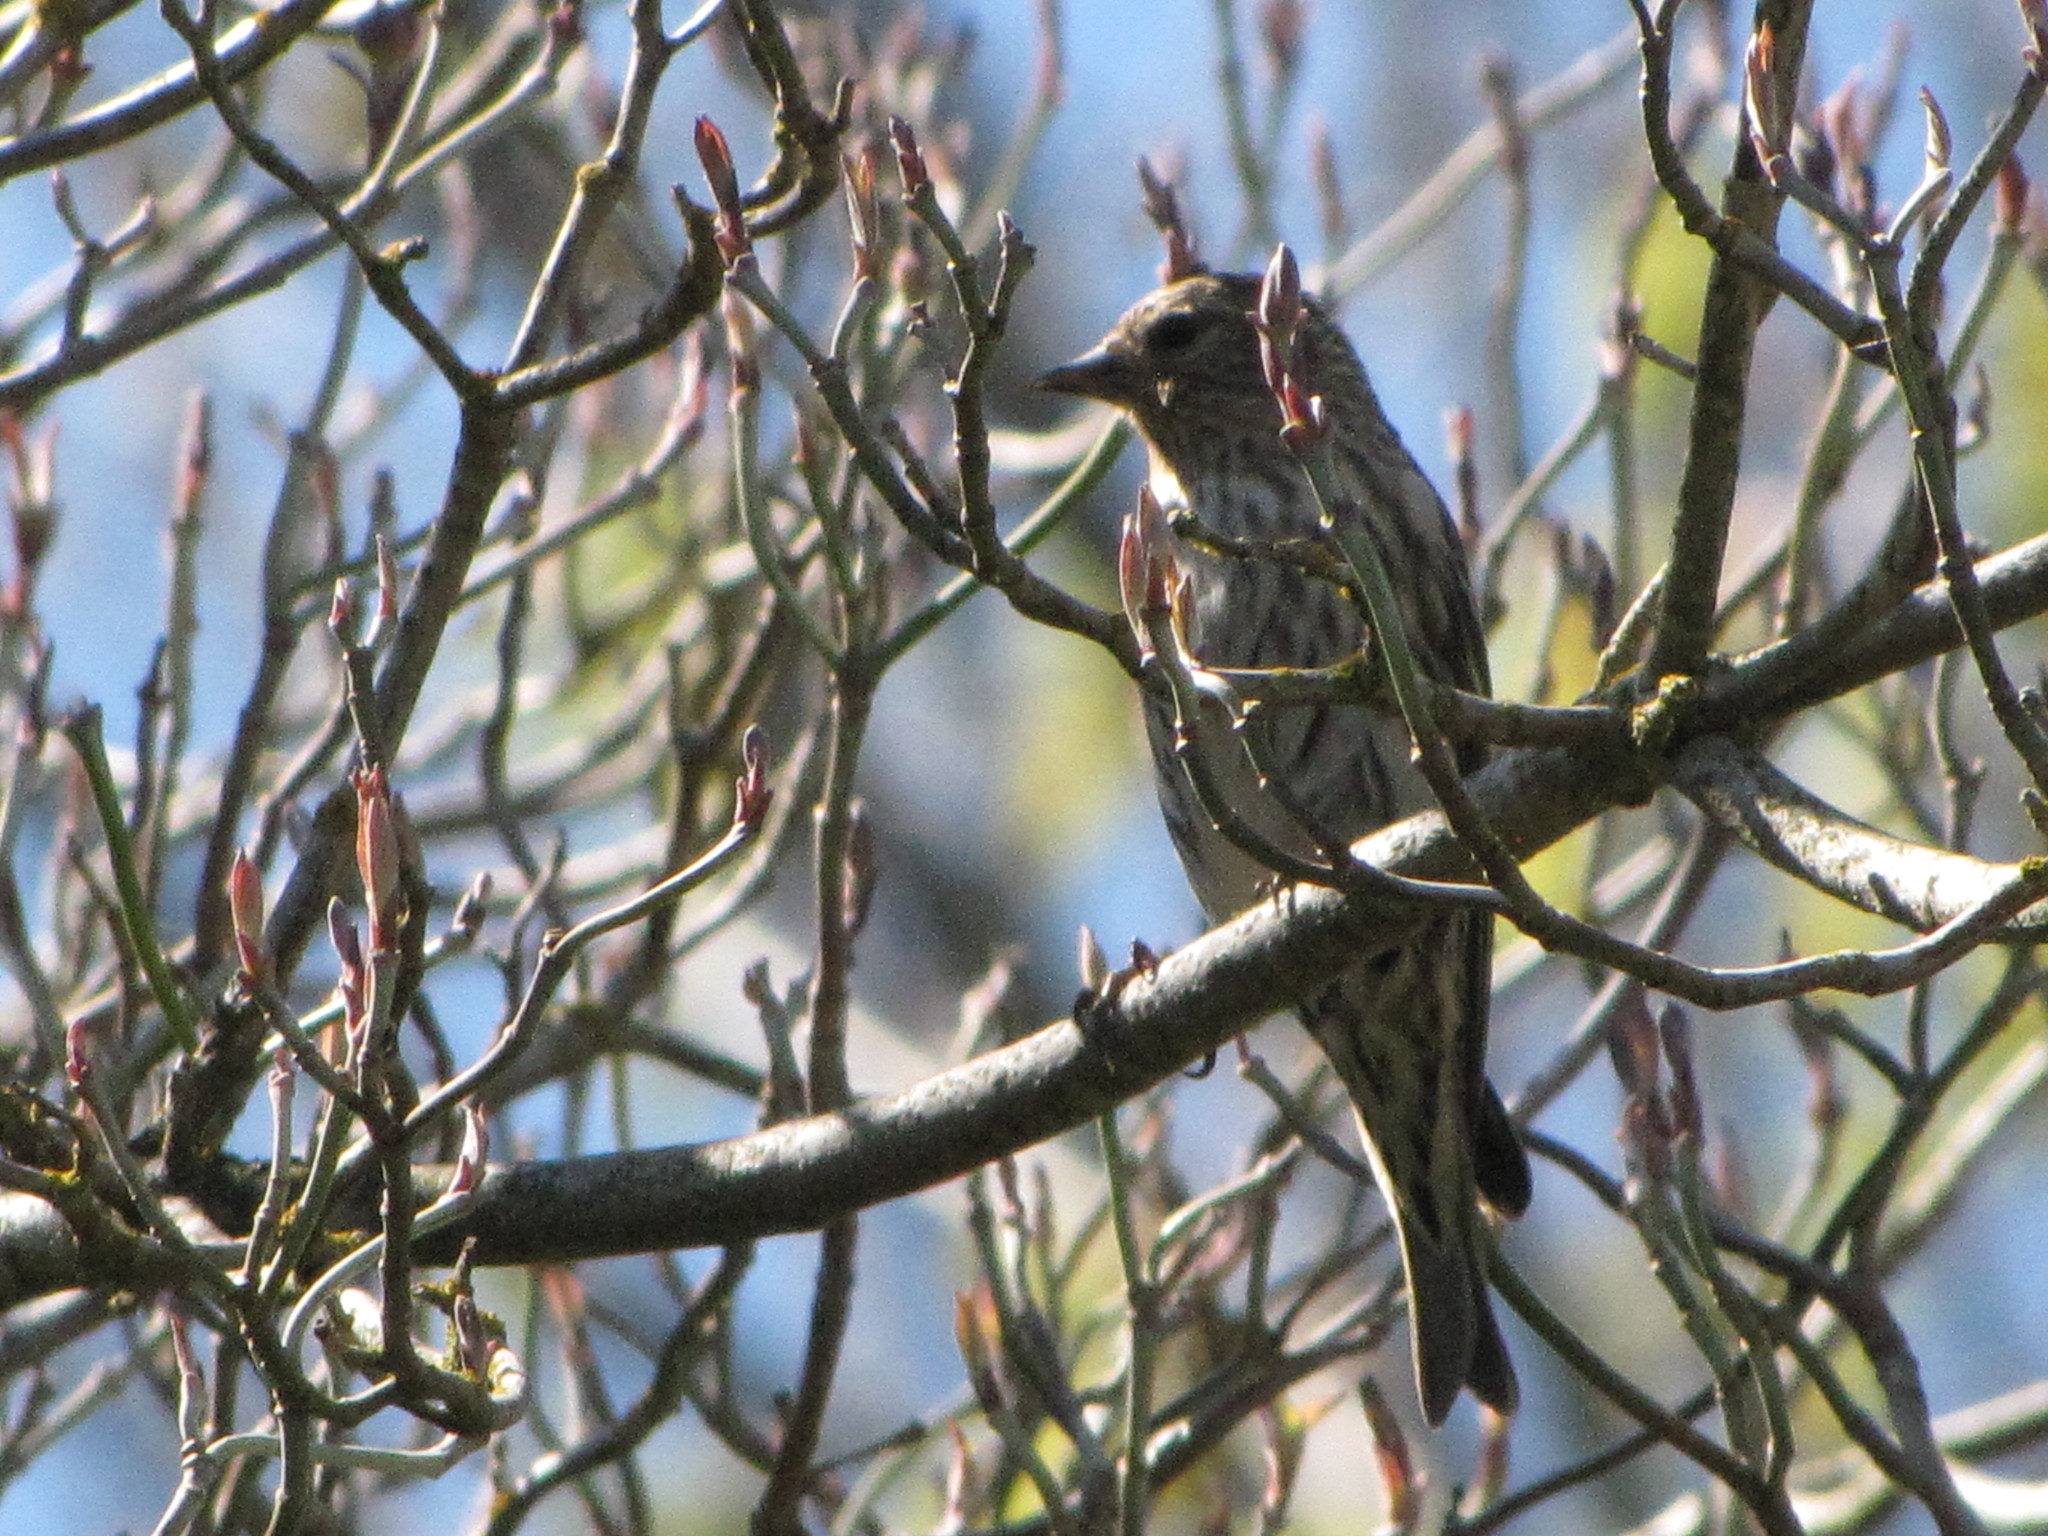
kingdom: Animalia
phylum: Chordata
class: Aves
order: Passeriformes
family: Fringillidae
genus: Spinus
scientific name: Spinus pinus
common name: Pine siskin
